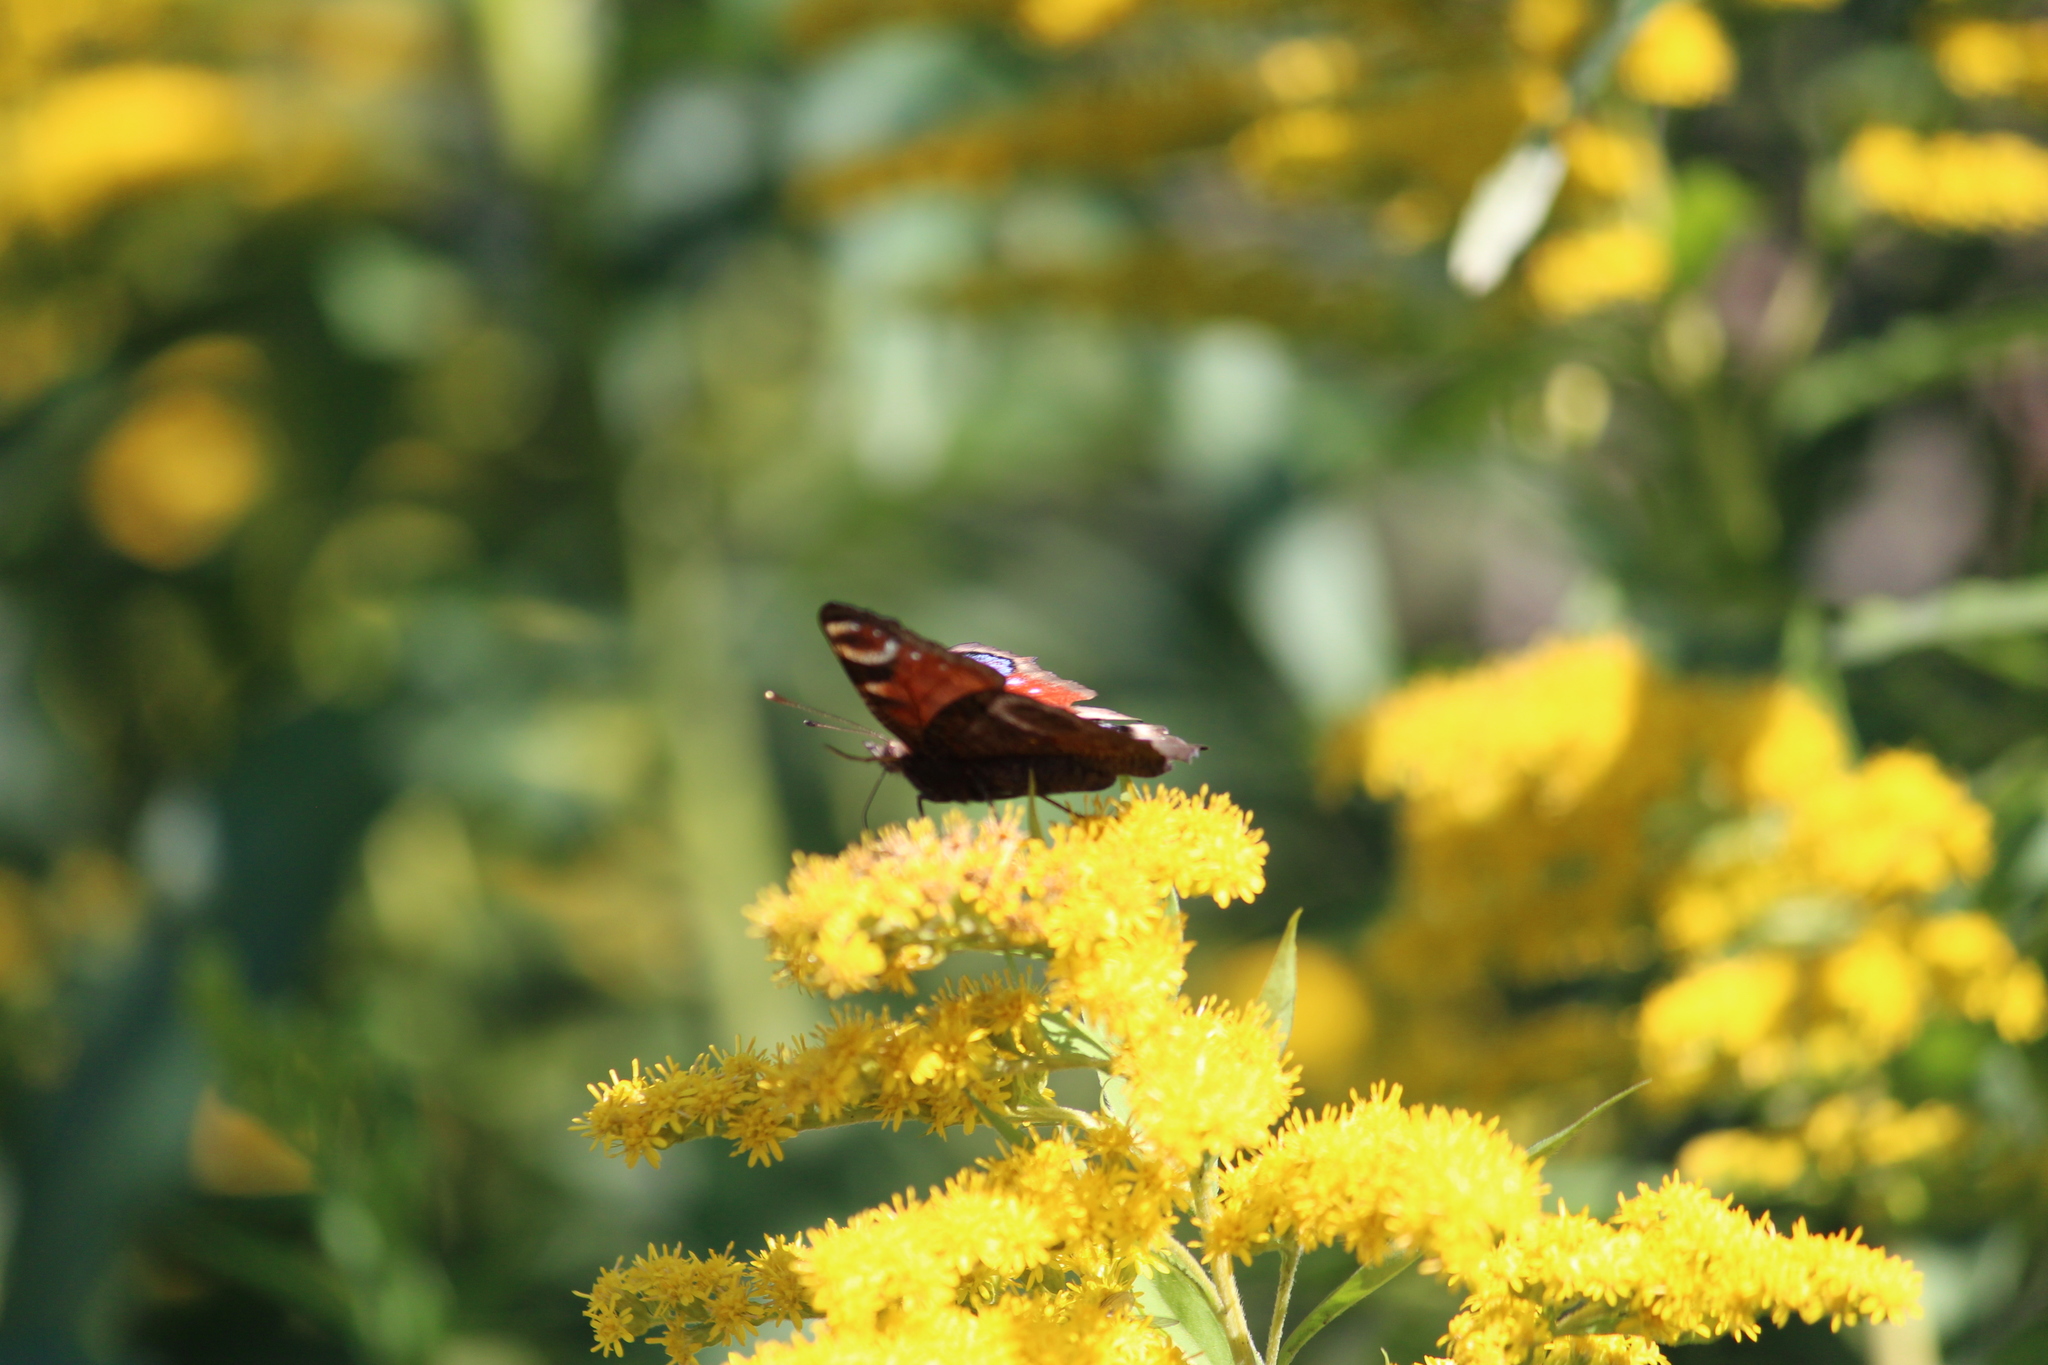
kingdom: Animalia
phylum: Arthropoda
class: Insecta
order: Lepidoptera
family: Nymphalidae
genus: Aglais
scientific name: Aglais io
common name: Peacock
